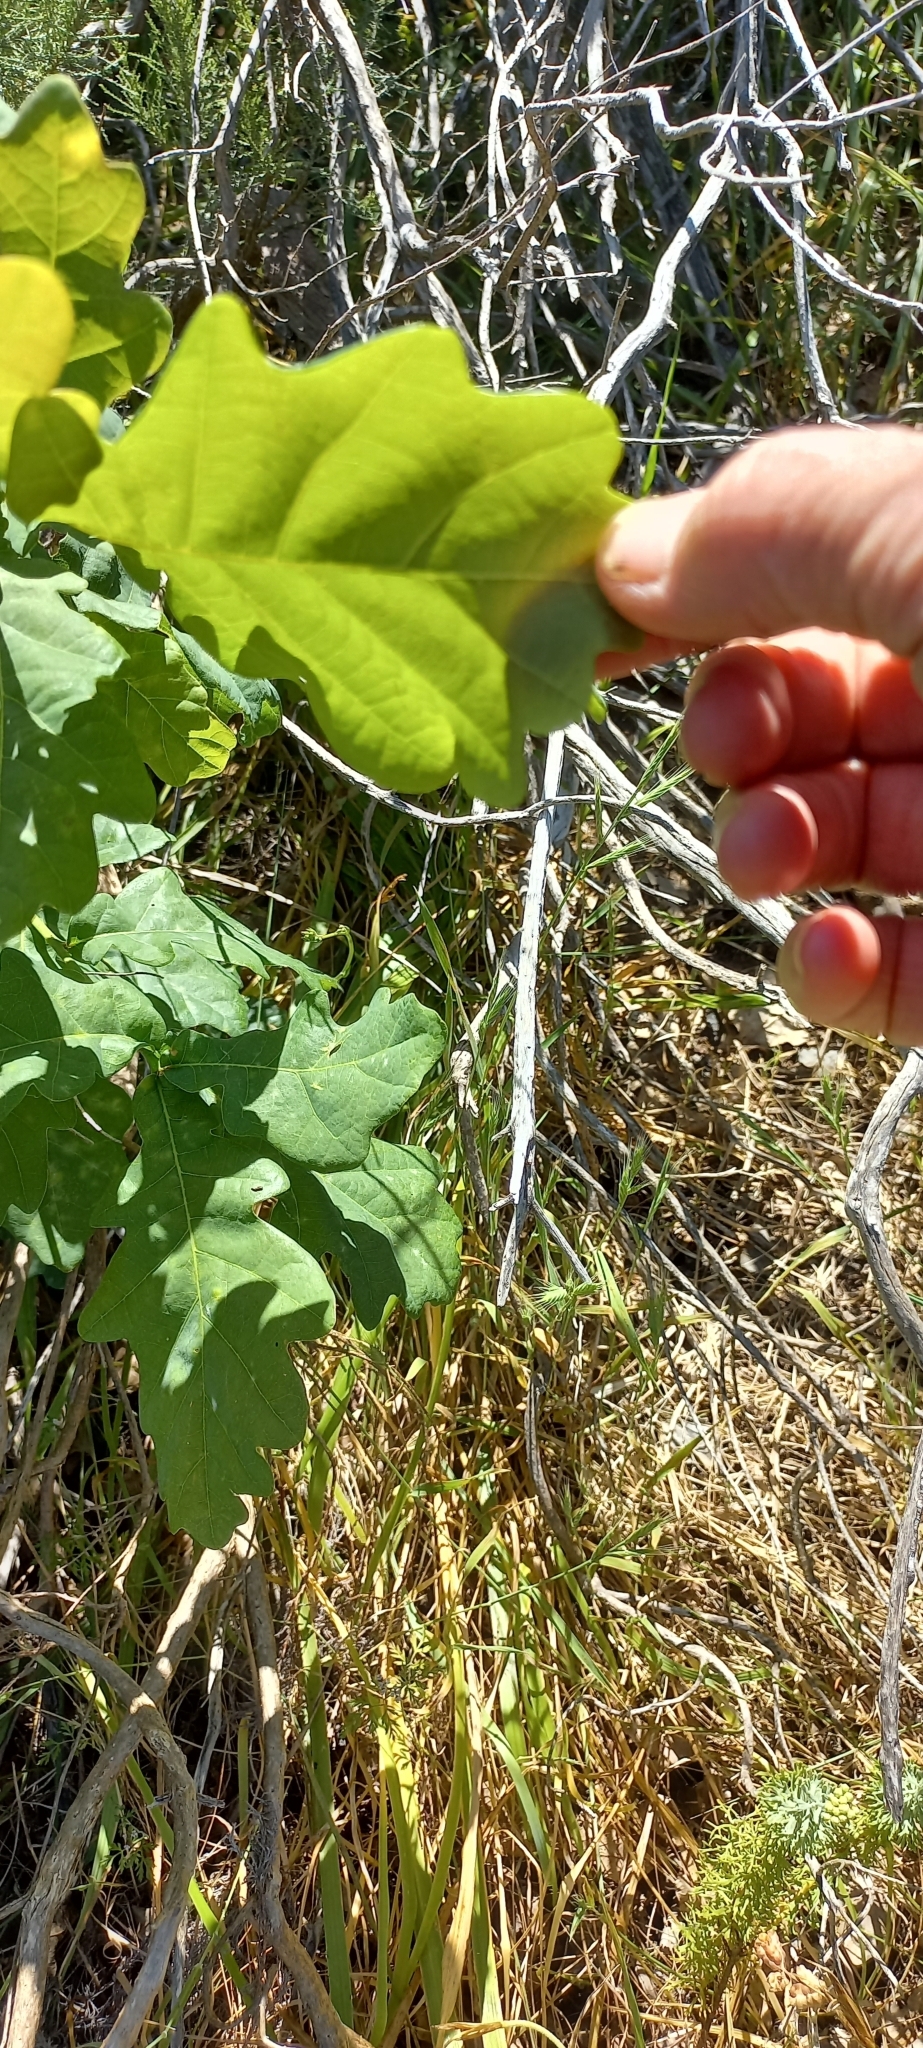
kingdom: Plantae
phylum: Tracheophyta
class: Magnoliopsida
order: Fagales
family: Fagaceae
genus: Quercus
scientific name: Quercus robur
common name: Pedunculate oak
